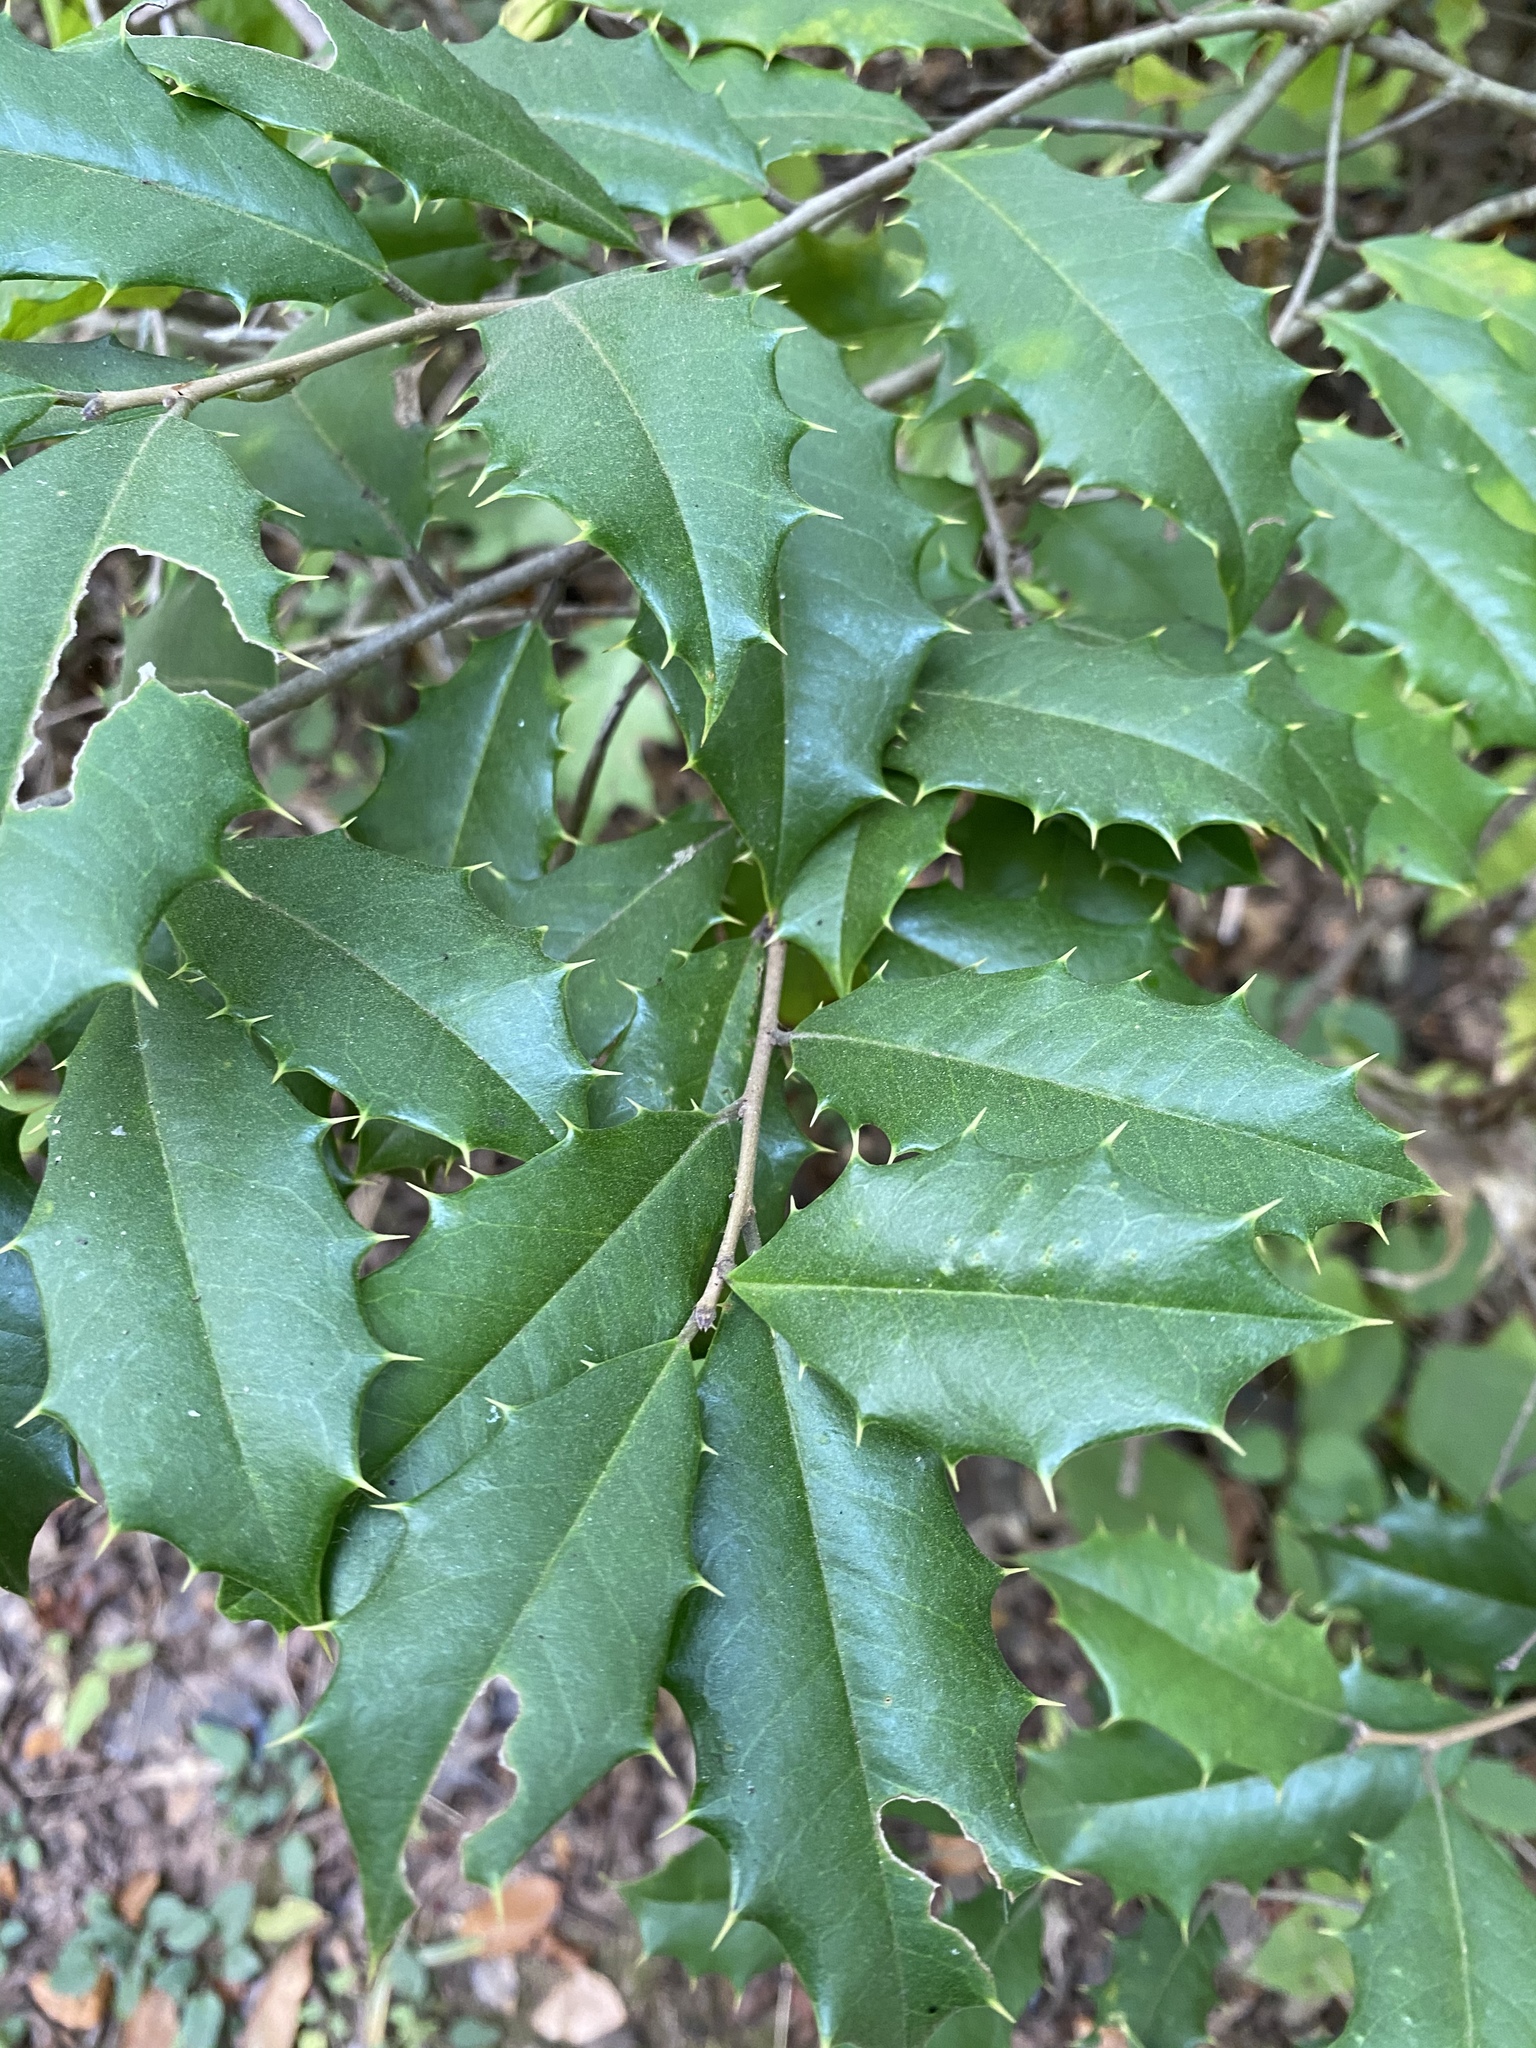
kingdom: Plantae
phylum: Tracheophyta
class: Magnoliopsida
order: Aquifoliales
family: Aquifoliaceae
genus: Ilex
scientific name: Ilex opaca
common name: American holly
